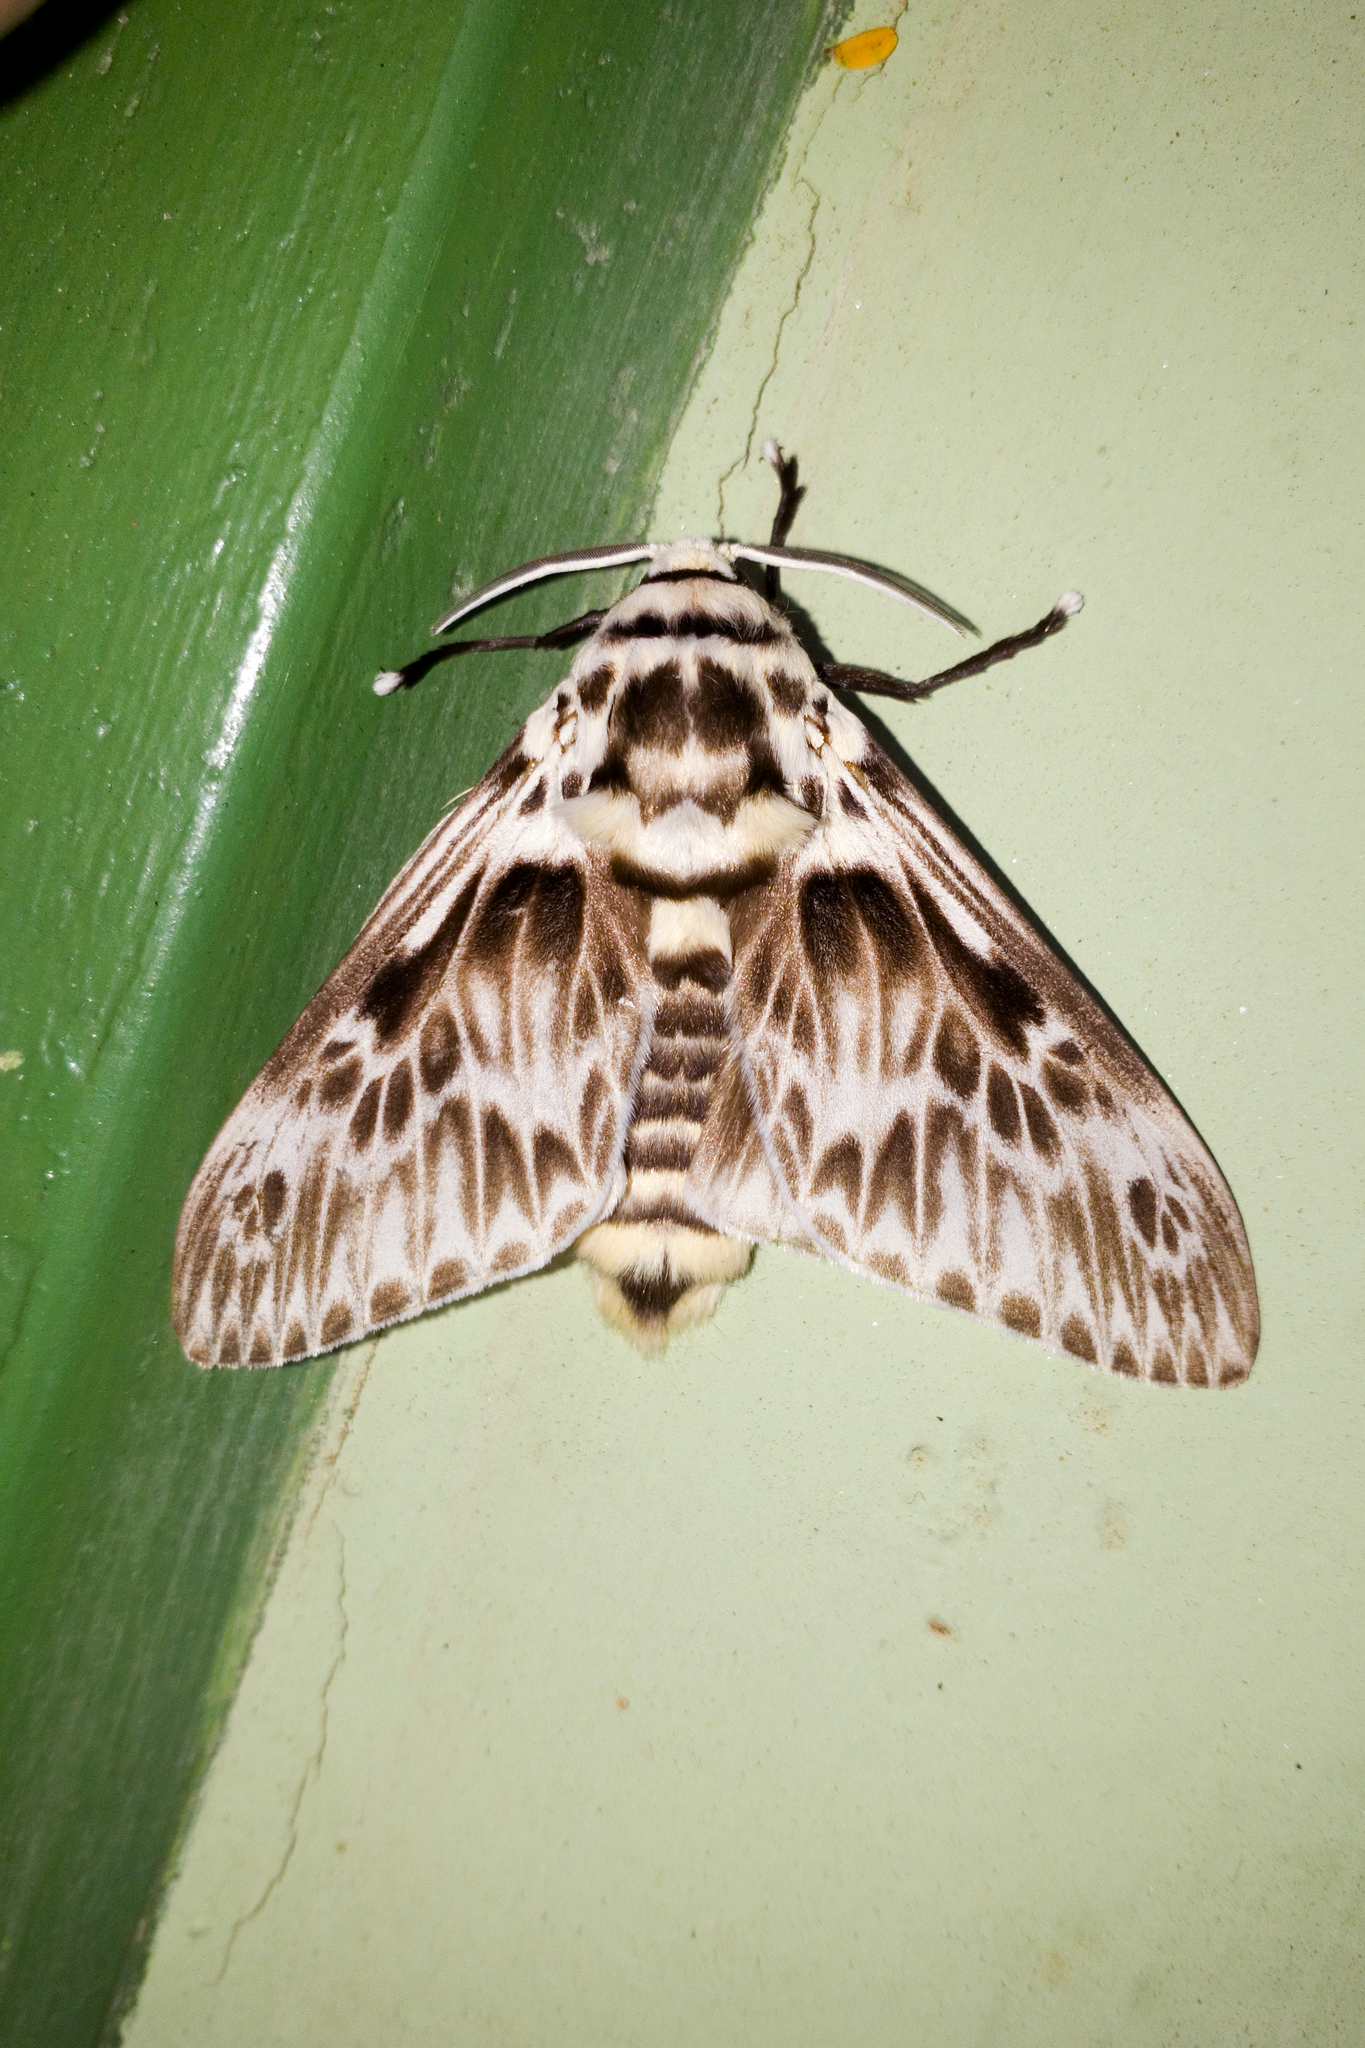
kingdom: Animalia
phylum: Arthropoda
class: Insecta
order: Lepidoptera
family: Megalopygidae
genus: Podalia
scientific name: Podalia orsilochus
